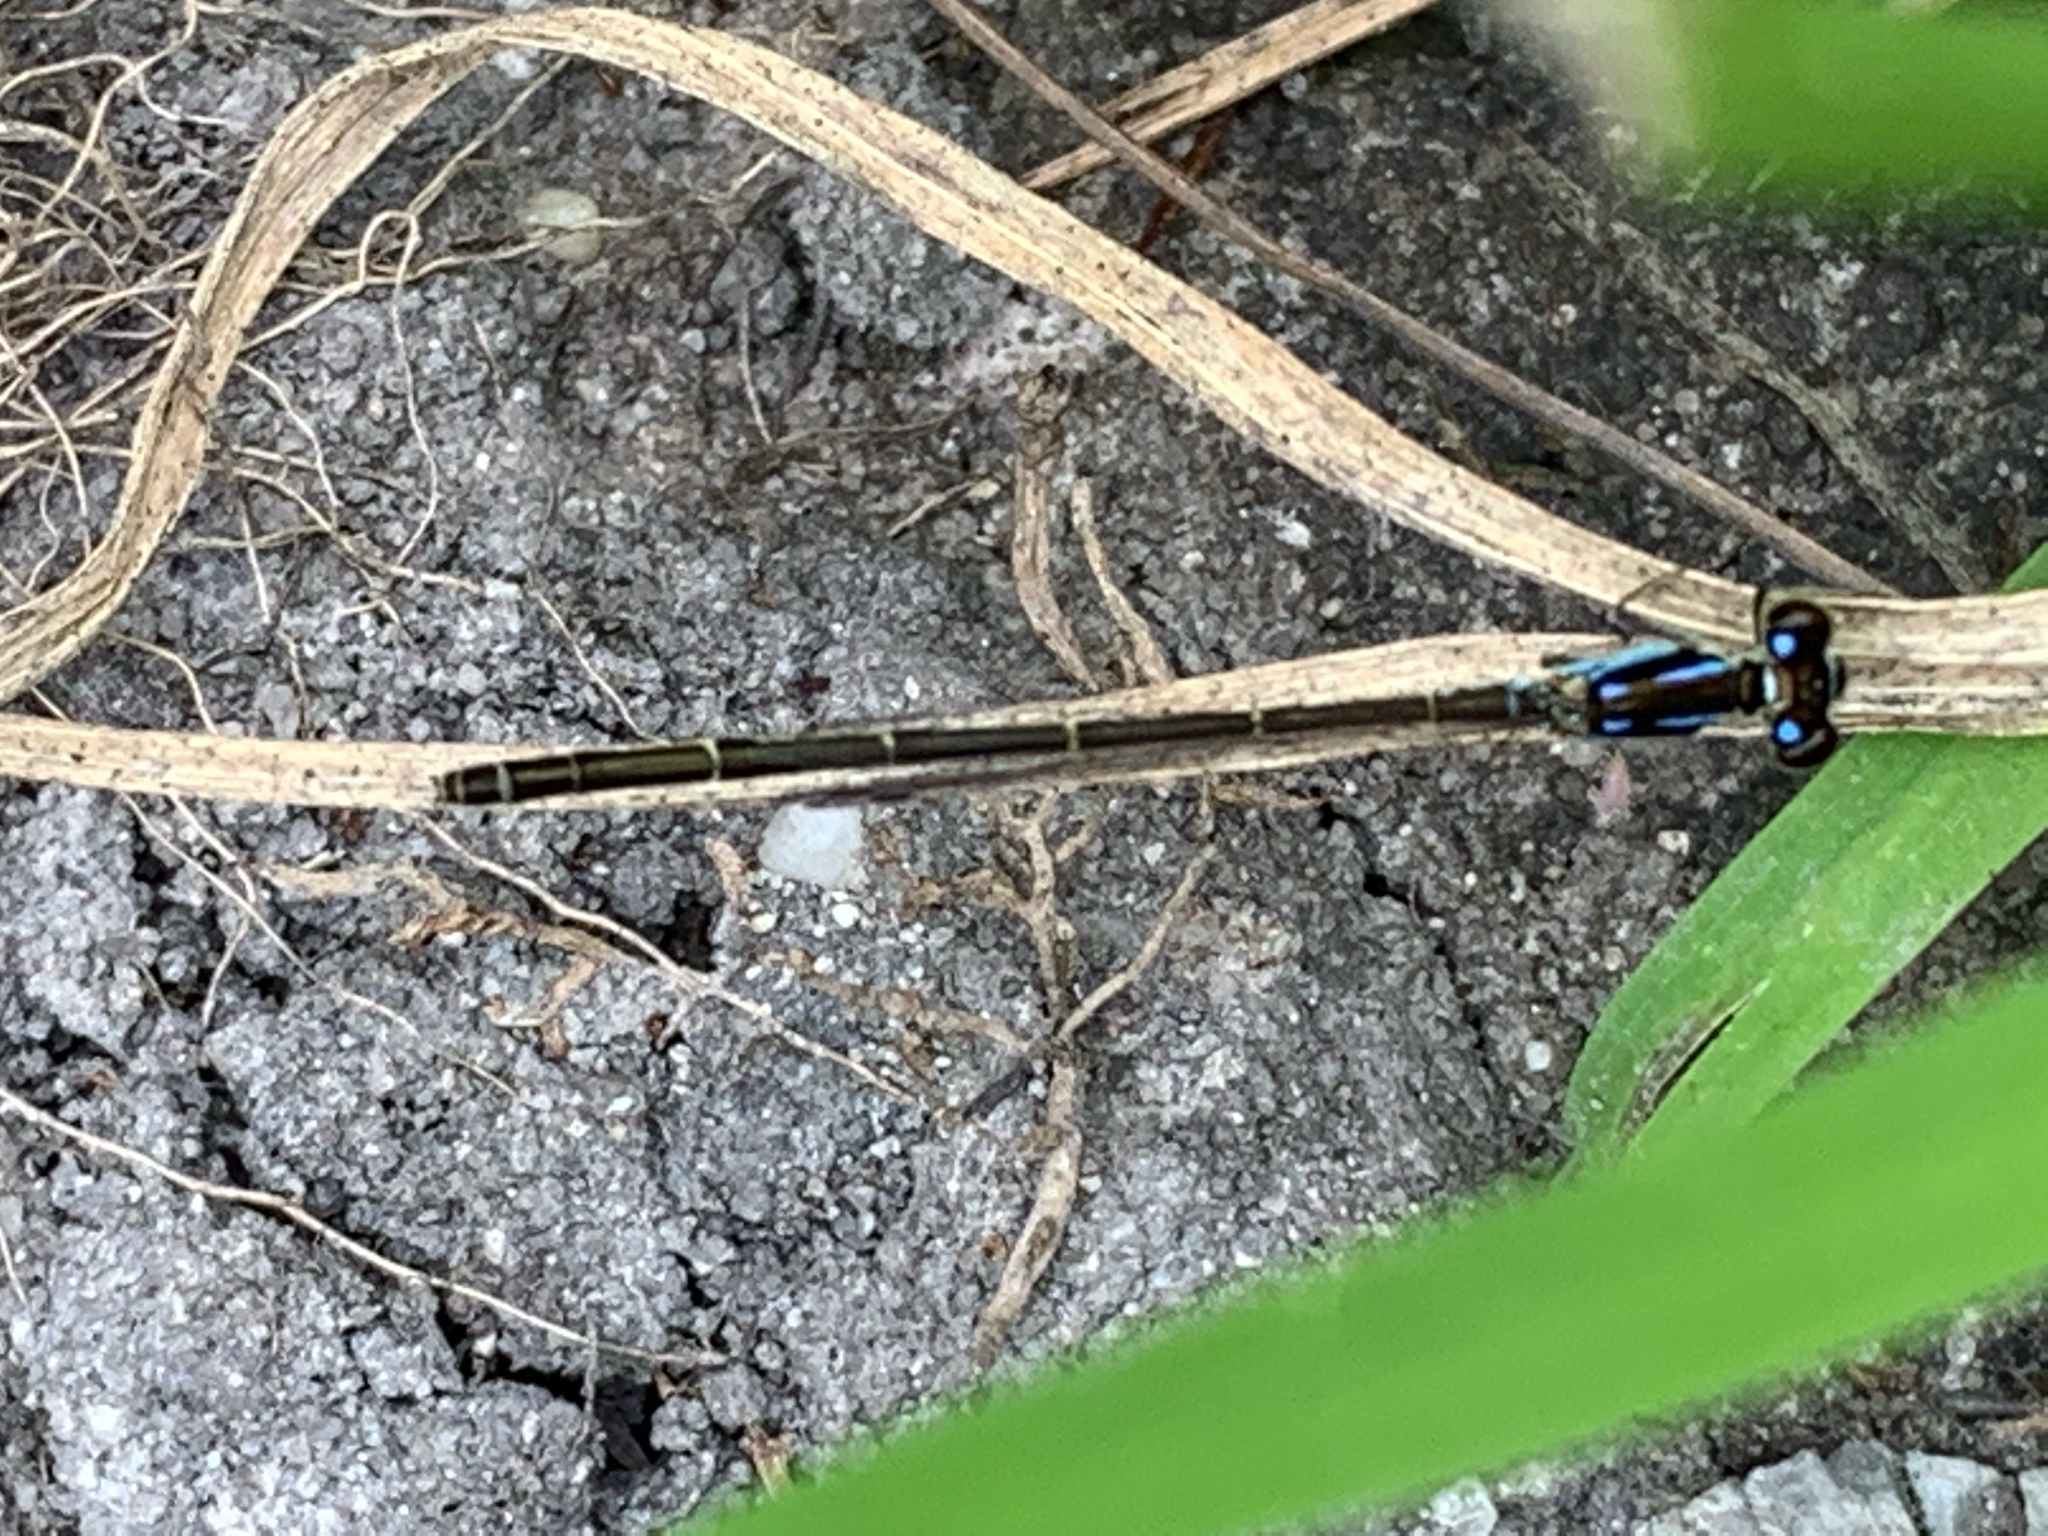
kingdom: Animalia
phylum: Arthropoda
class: Insecta
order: Odonata
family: Coenagrionidae
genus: Ischnura
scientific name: Ischnura posita
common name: Fragile forktail
